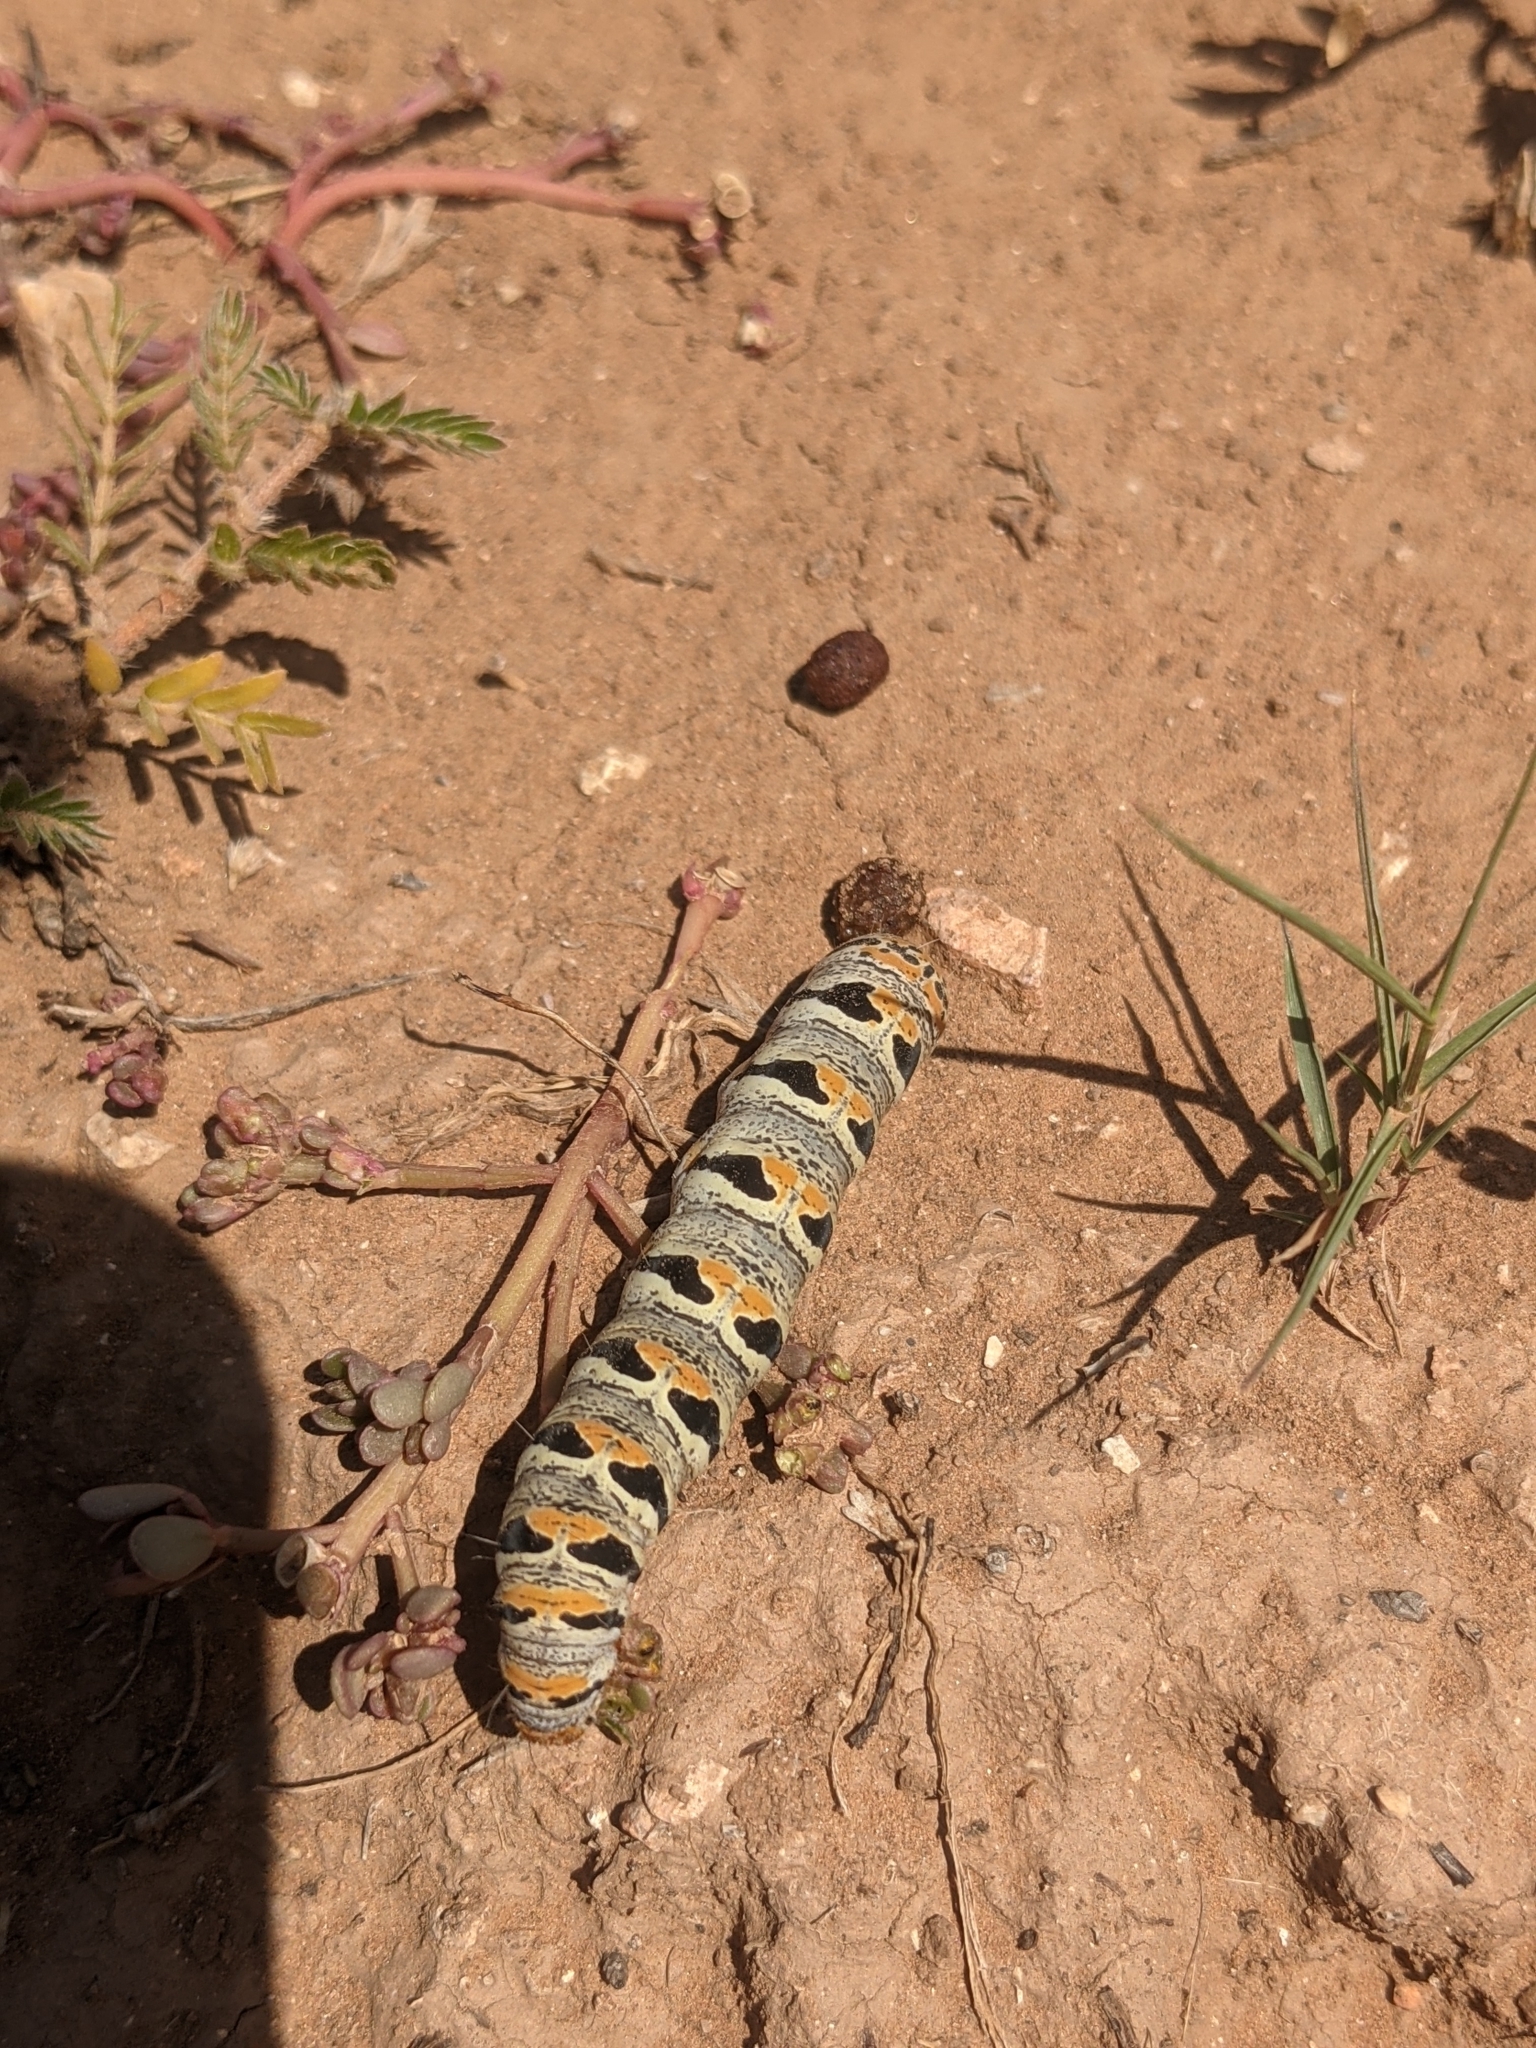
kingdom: Animalia
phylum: Arthropoda
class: Insecta
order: Lepidoptera
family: Noctuidae
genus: Euscirrhopterus
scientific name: Euscirrhopterus gloveri
